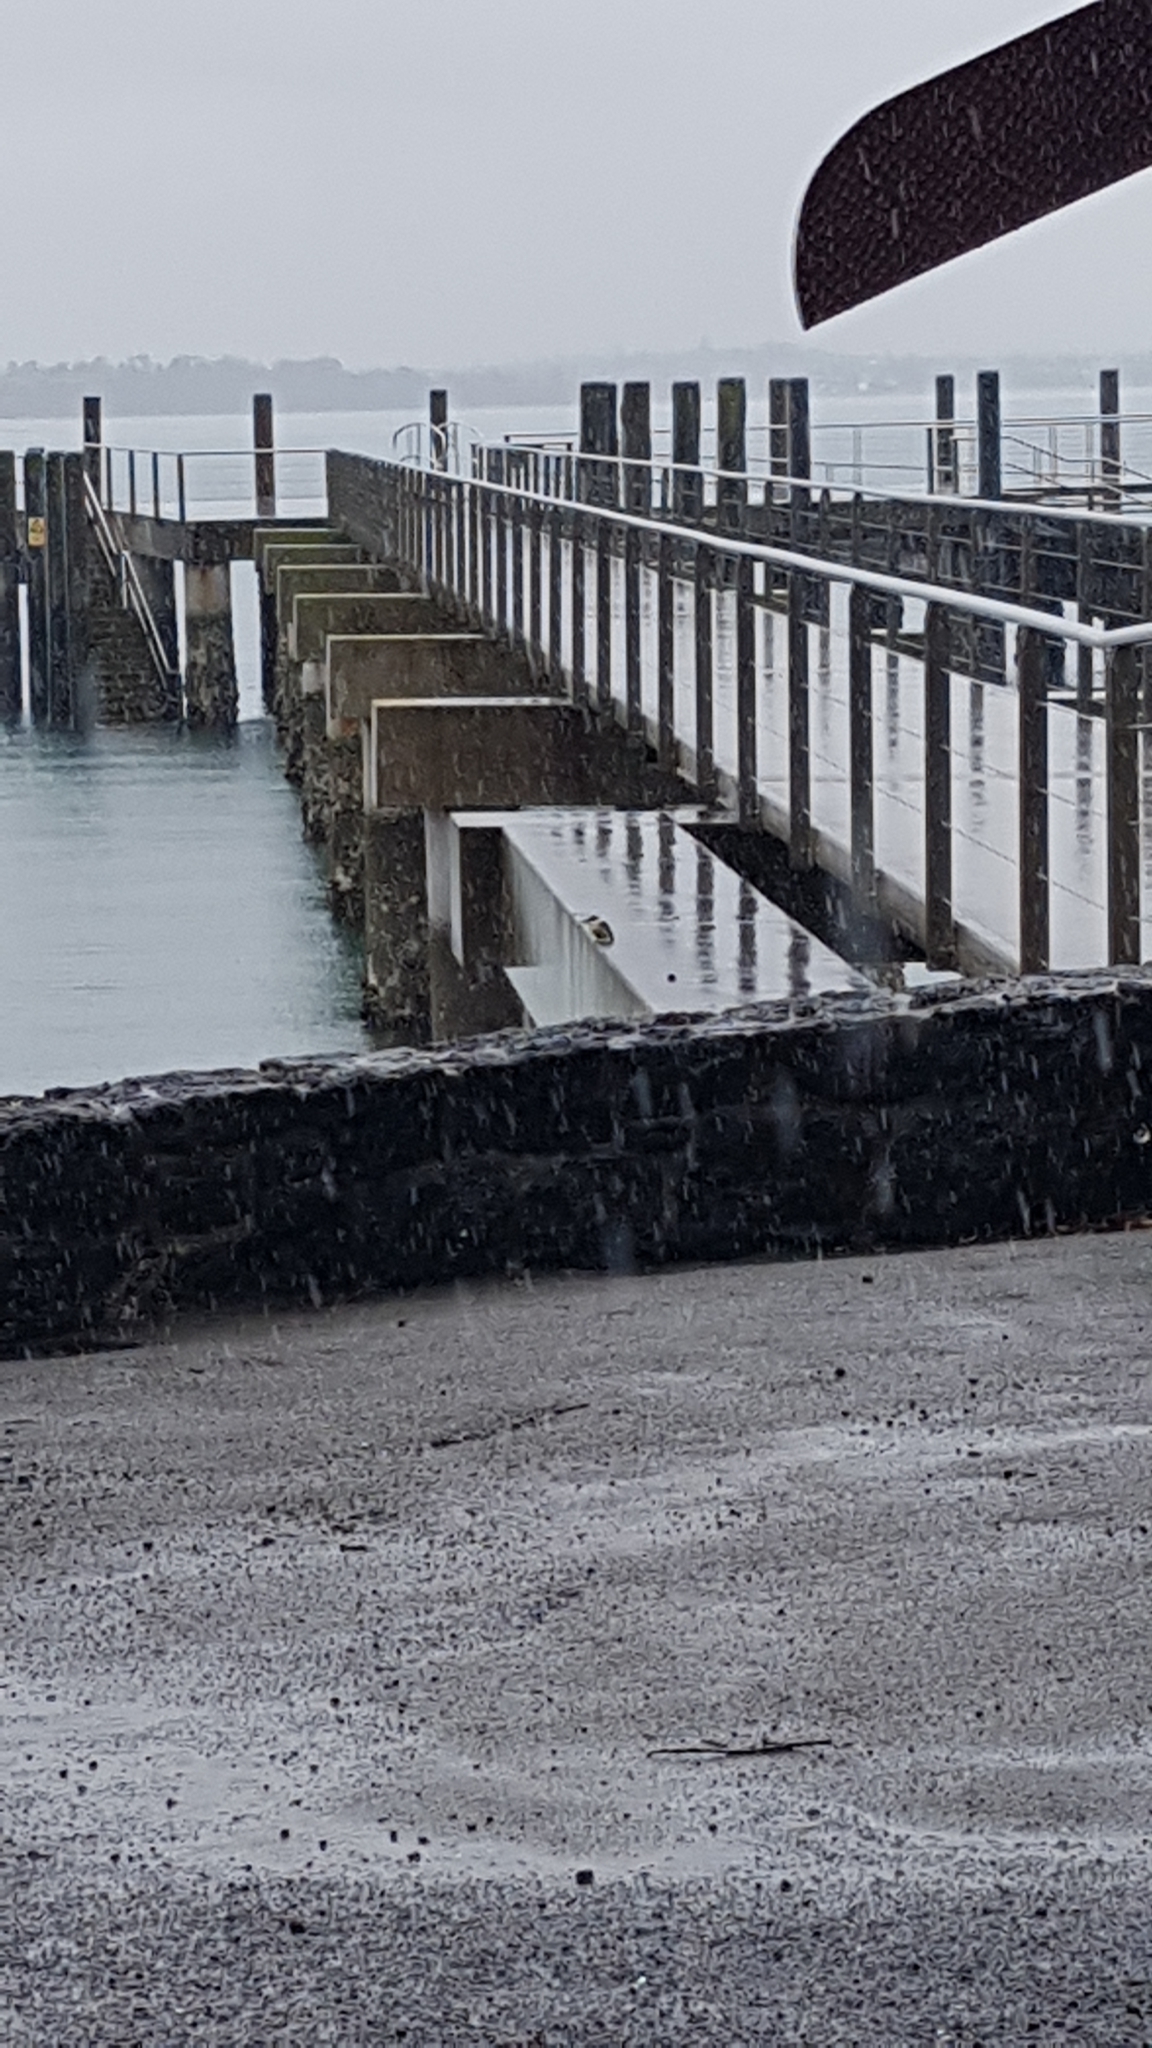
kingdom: Animalia
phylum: Chordata
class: Aves
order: Coraciiformes
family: Alcedinidae
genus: Todiramphus
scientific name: Todiramphus sanctus
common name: Sacred kingfisher
